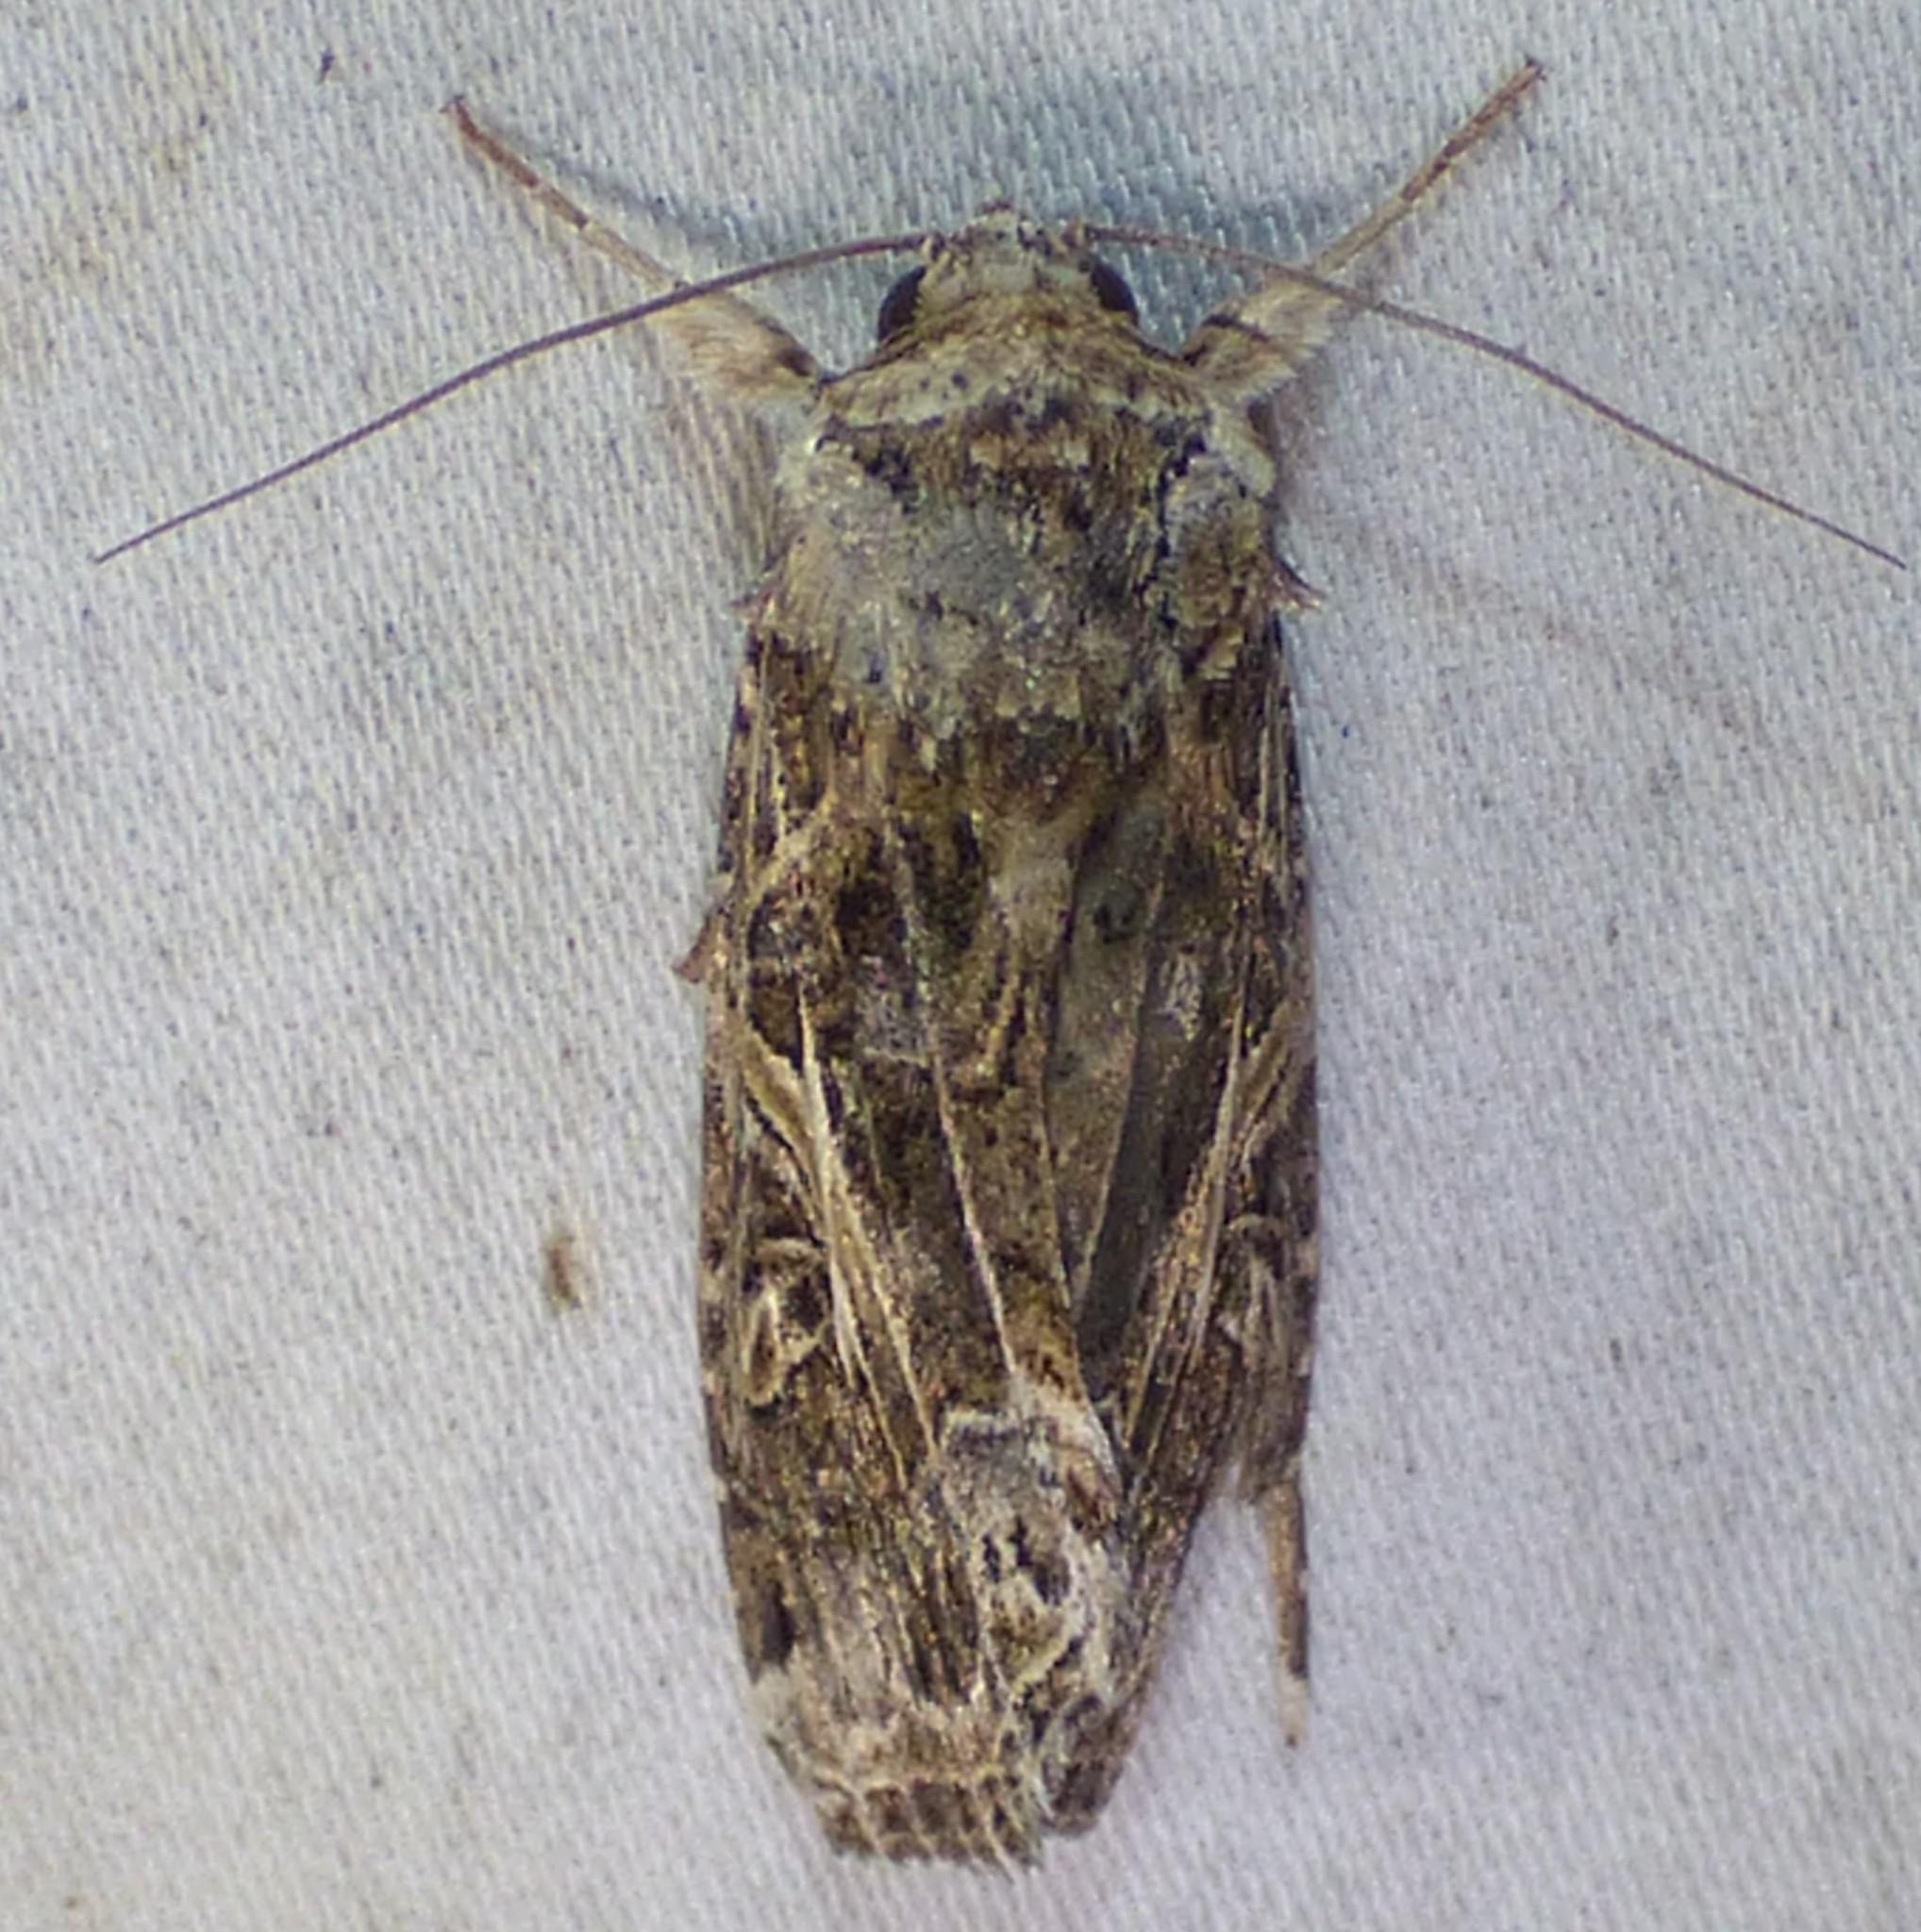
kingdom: Animalia
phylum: Arthropoda
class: Insecta
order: Lepidoptera
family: Noctuidae
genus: Spodoptera
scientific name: Spodoptera ornithogalli
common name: Yellow-striped armyworm
